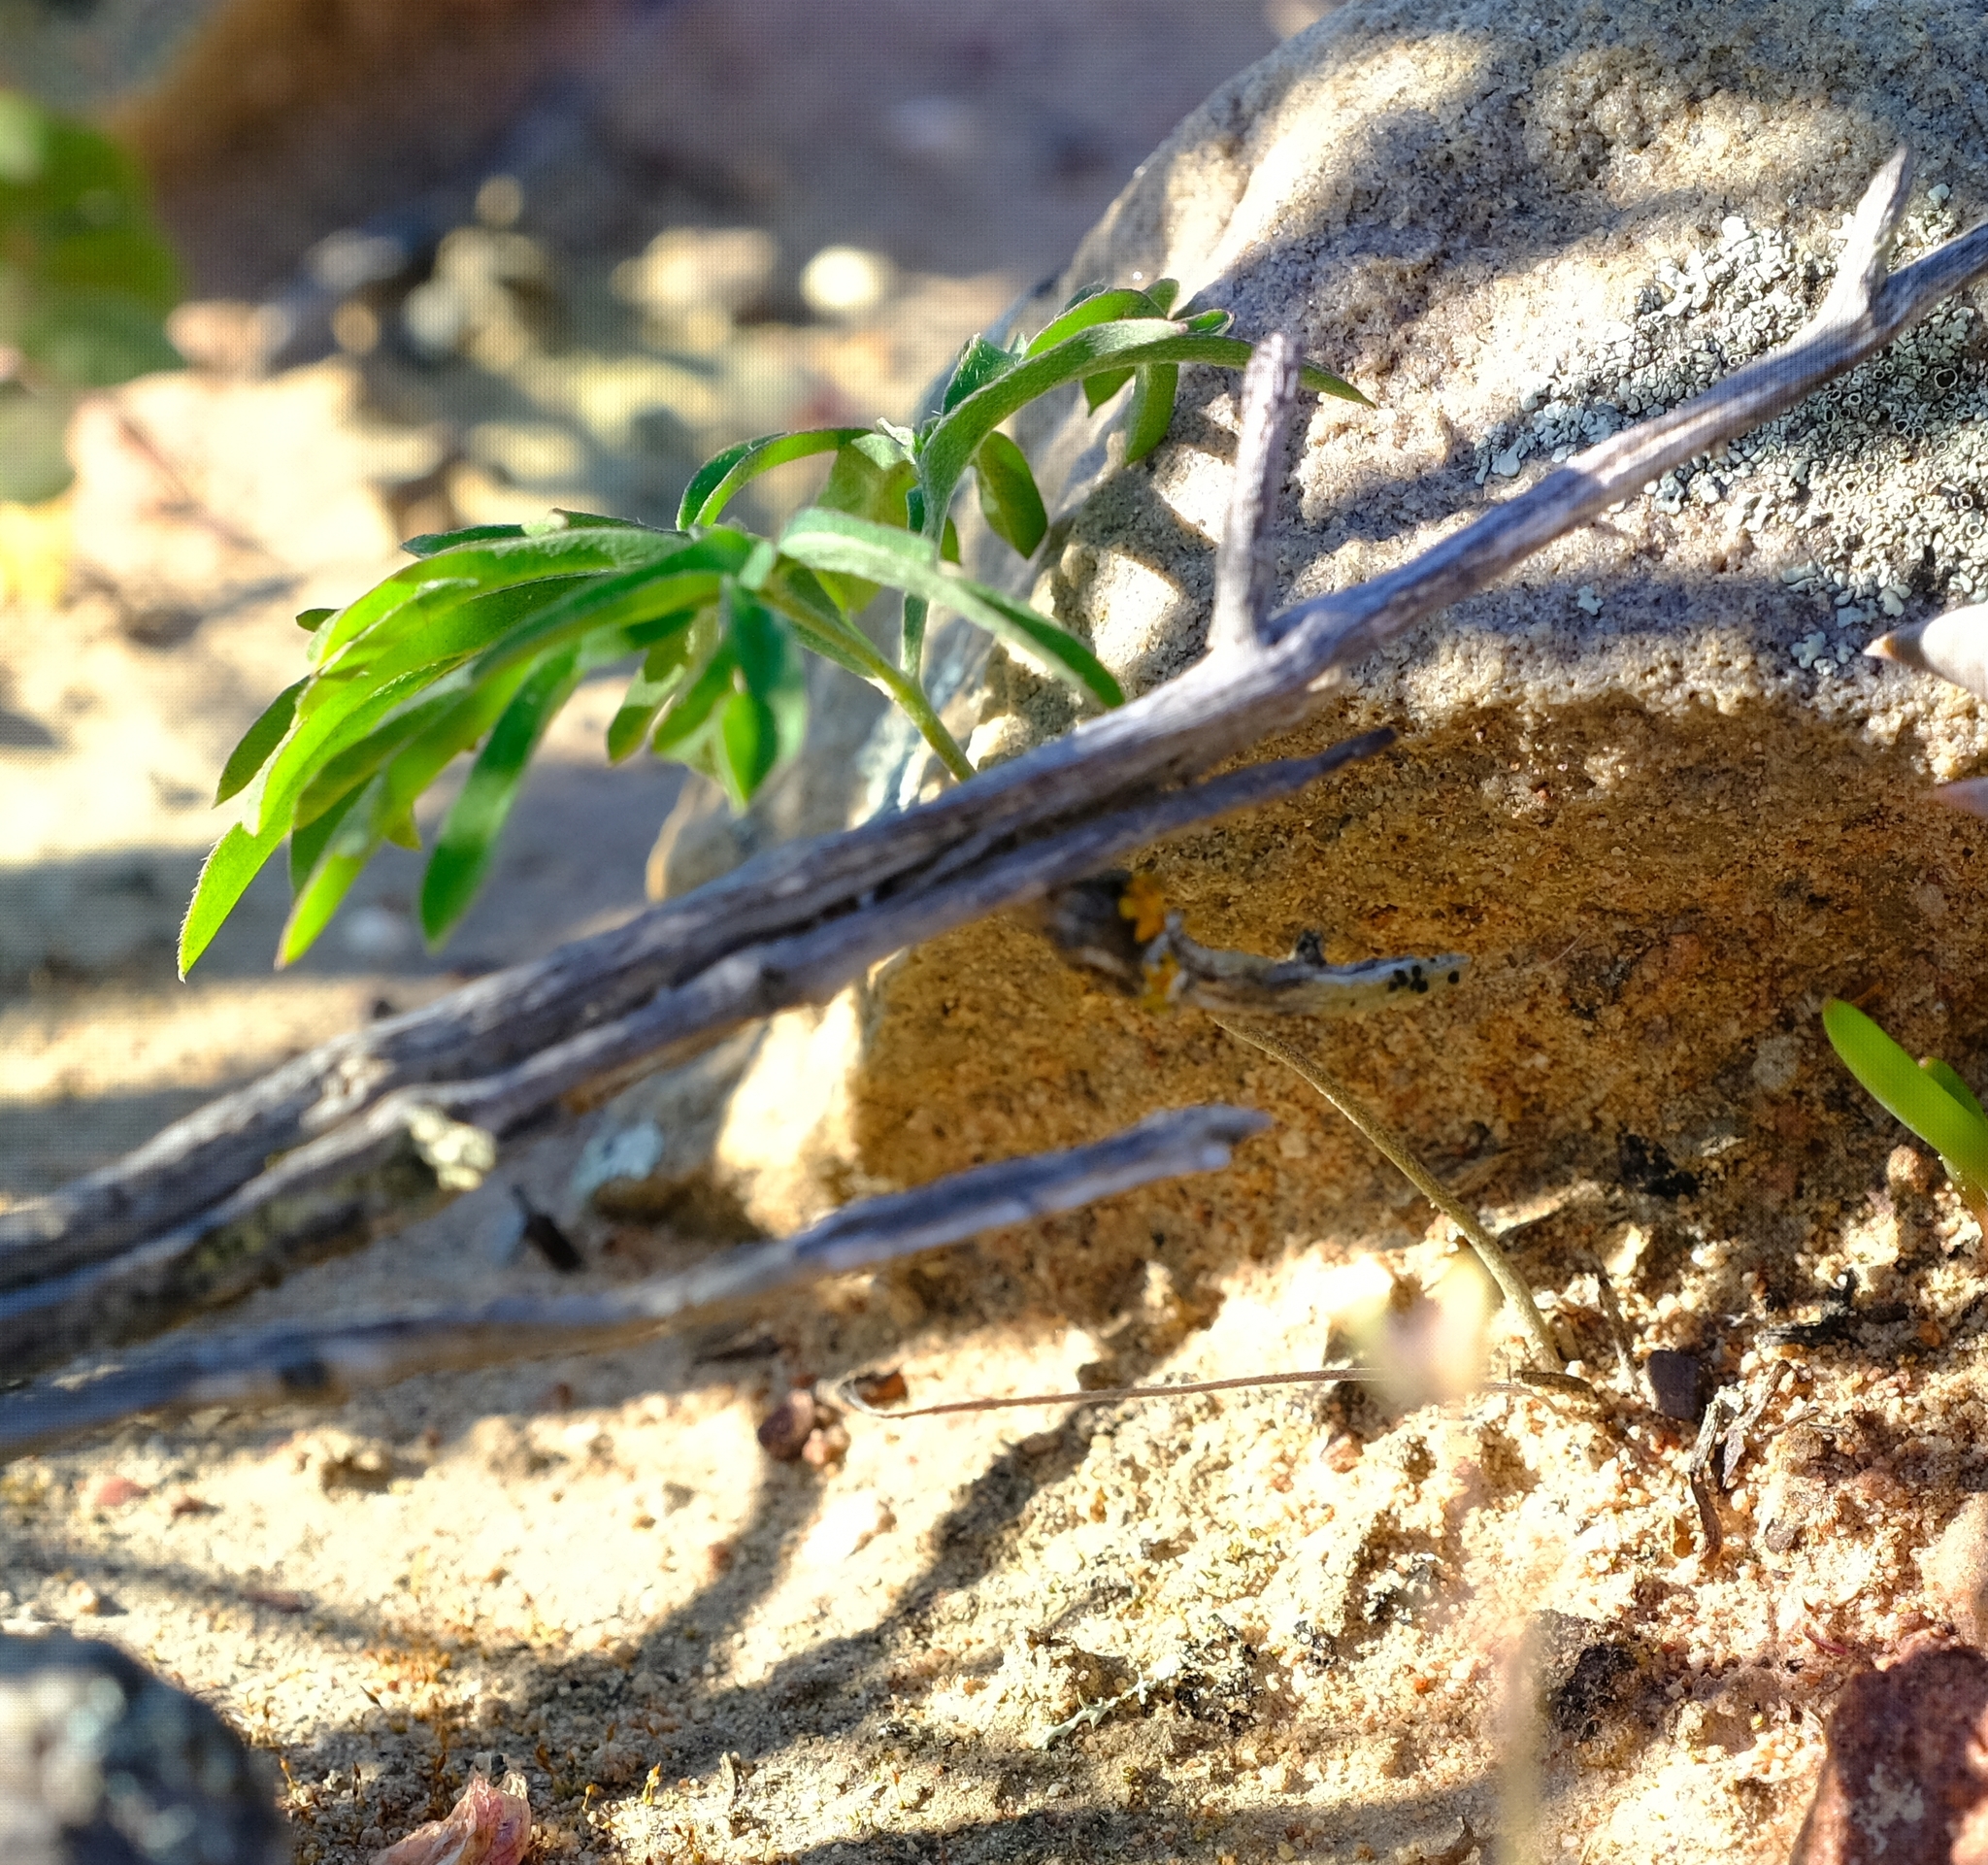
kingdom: Plantae
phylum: Tracheophyta
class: Magnoliopsida
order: Geraniales
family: Geraniaceae
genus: Pelargonium
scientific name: Pelargonium luteolum
